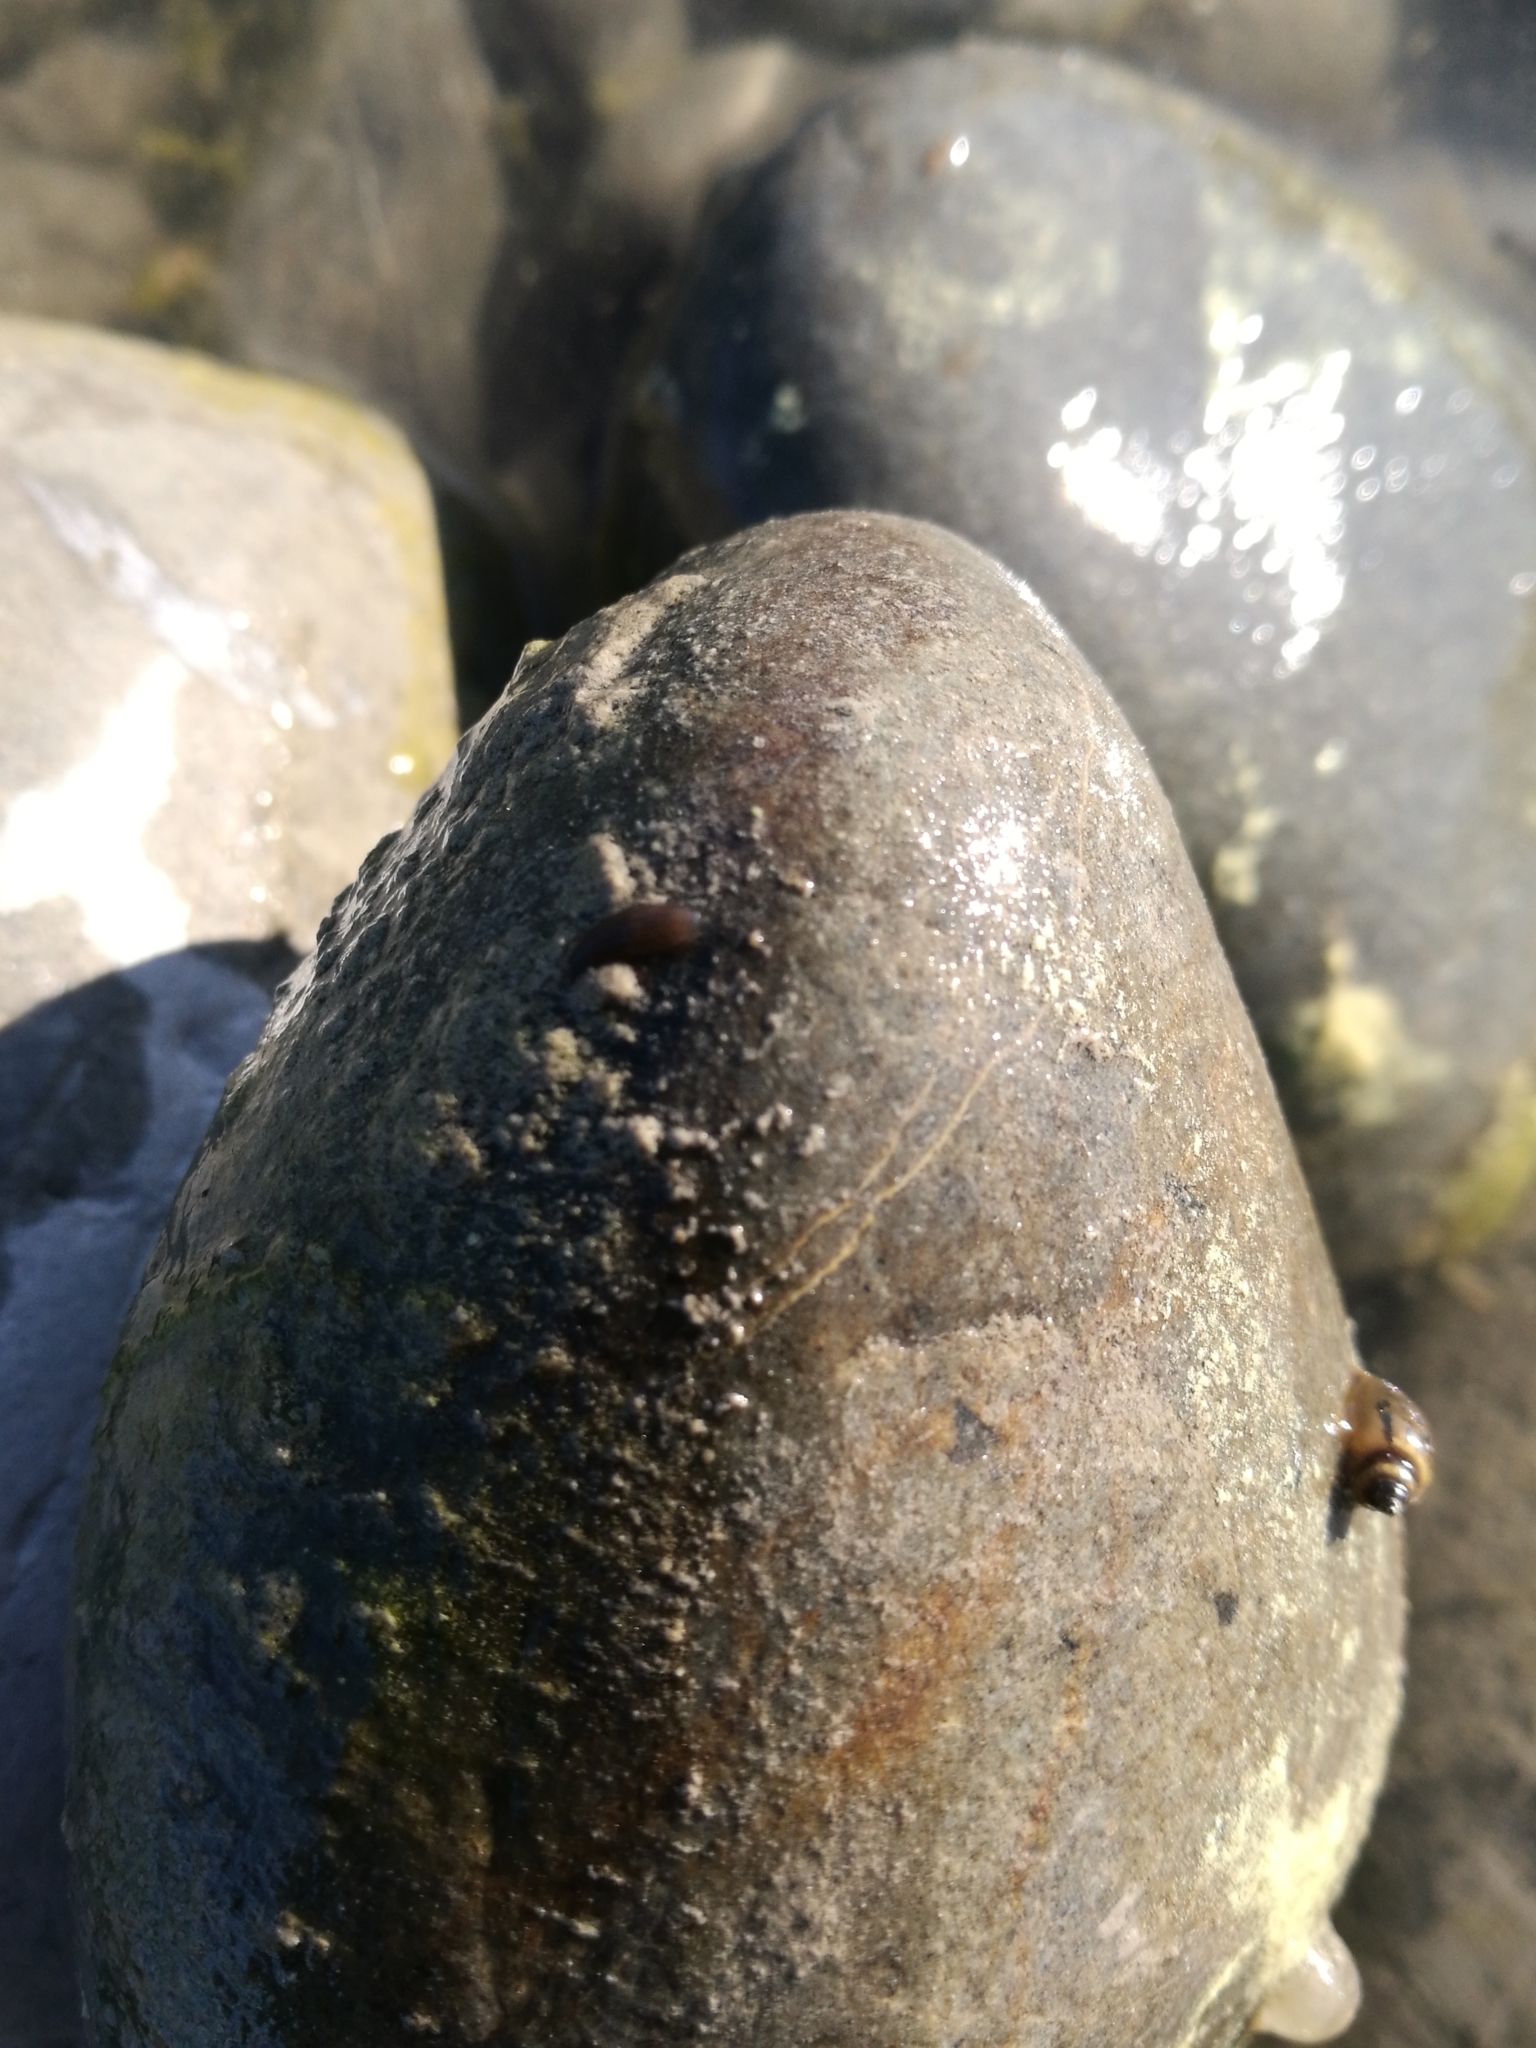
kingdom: Animalia
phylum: Mollusca
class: Gastropoda
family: Physidae
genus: Physella
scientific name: Physella acuta
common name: European physa
